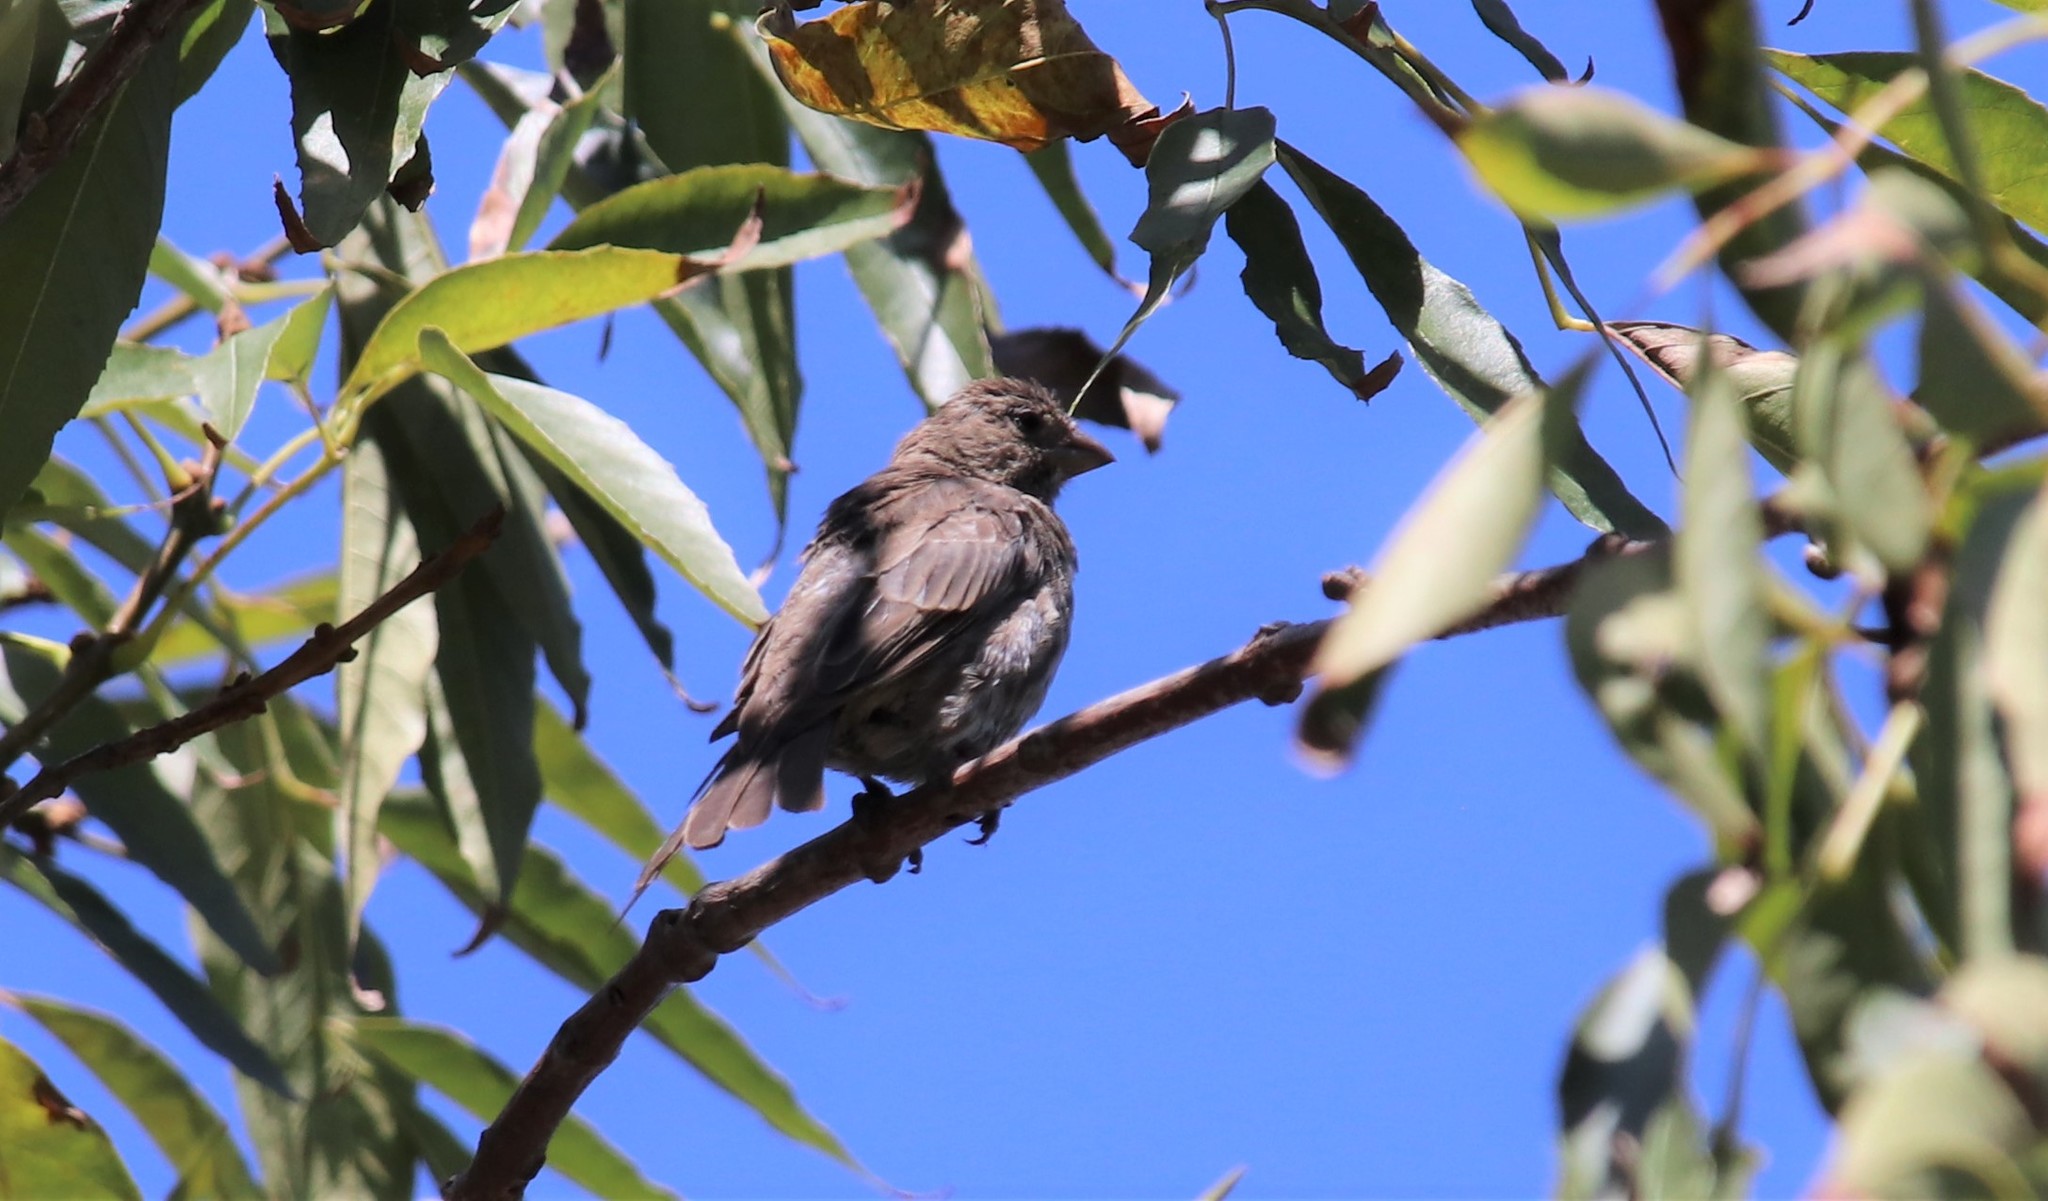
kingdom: Animalia
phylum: Chordata
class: Aves
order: Passeriformes
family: Fringillidae
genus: Haemorhous
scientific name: Haemorhous mexicanus
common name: House finch
